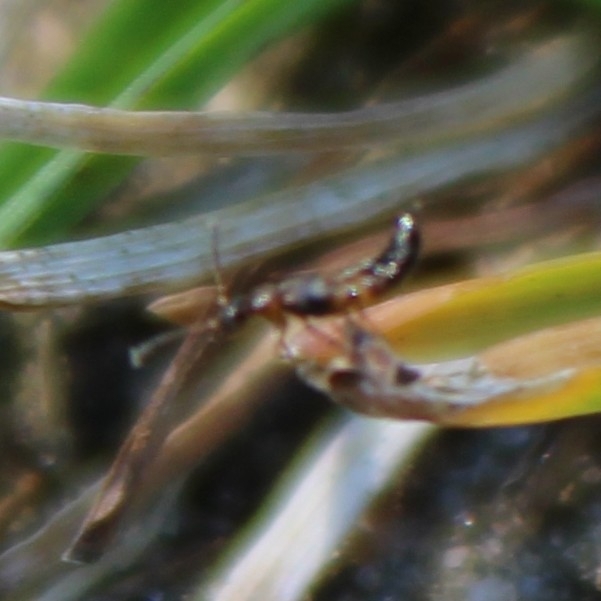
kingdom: Animalia
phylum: Arthropoda
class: Insecta
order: Coleoptera
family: Staphylinidae
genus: Meronera
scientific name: Meronera venustula
